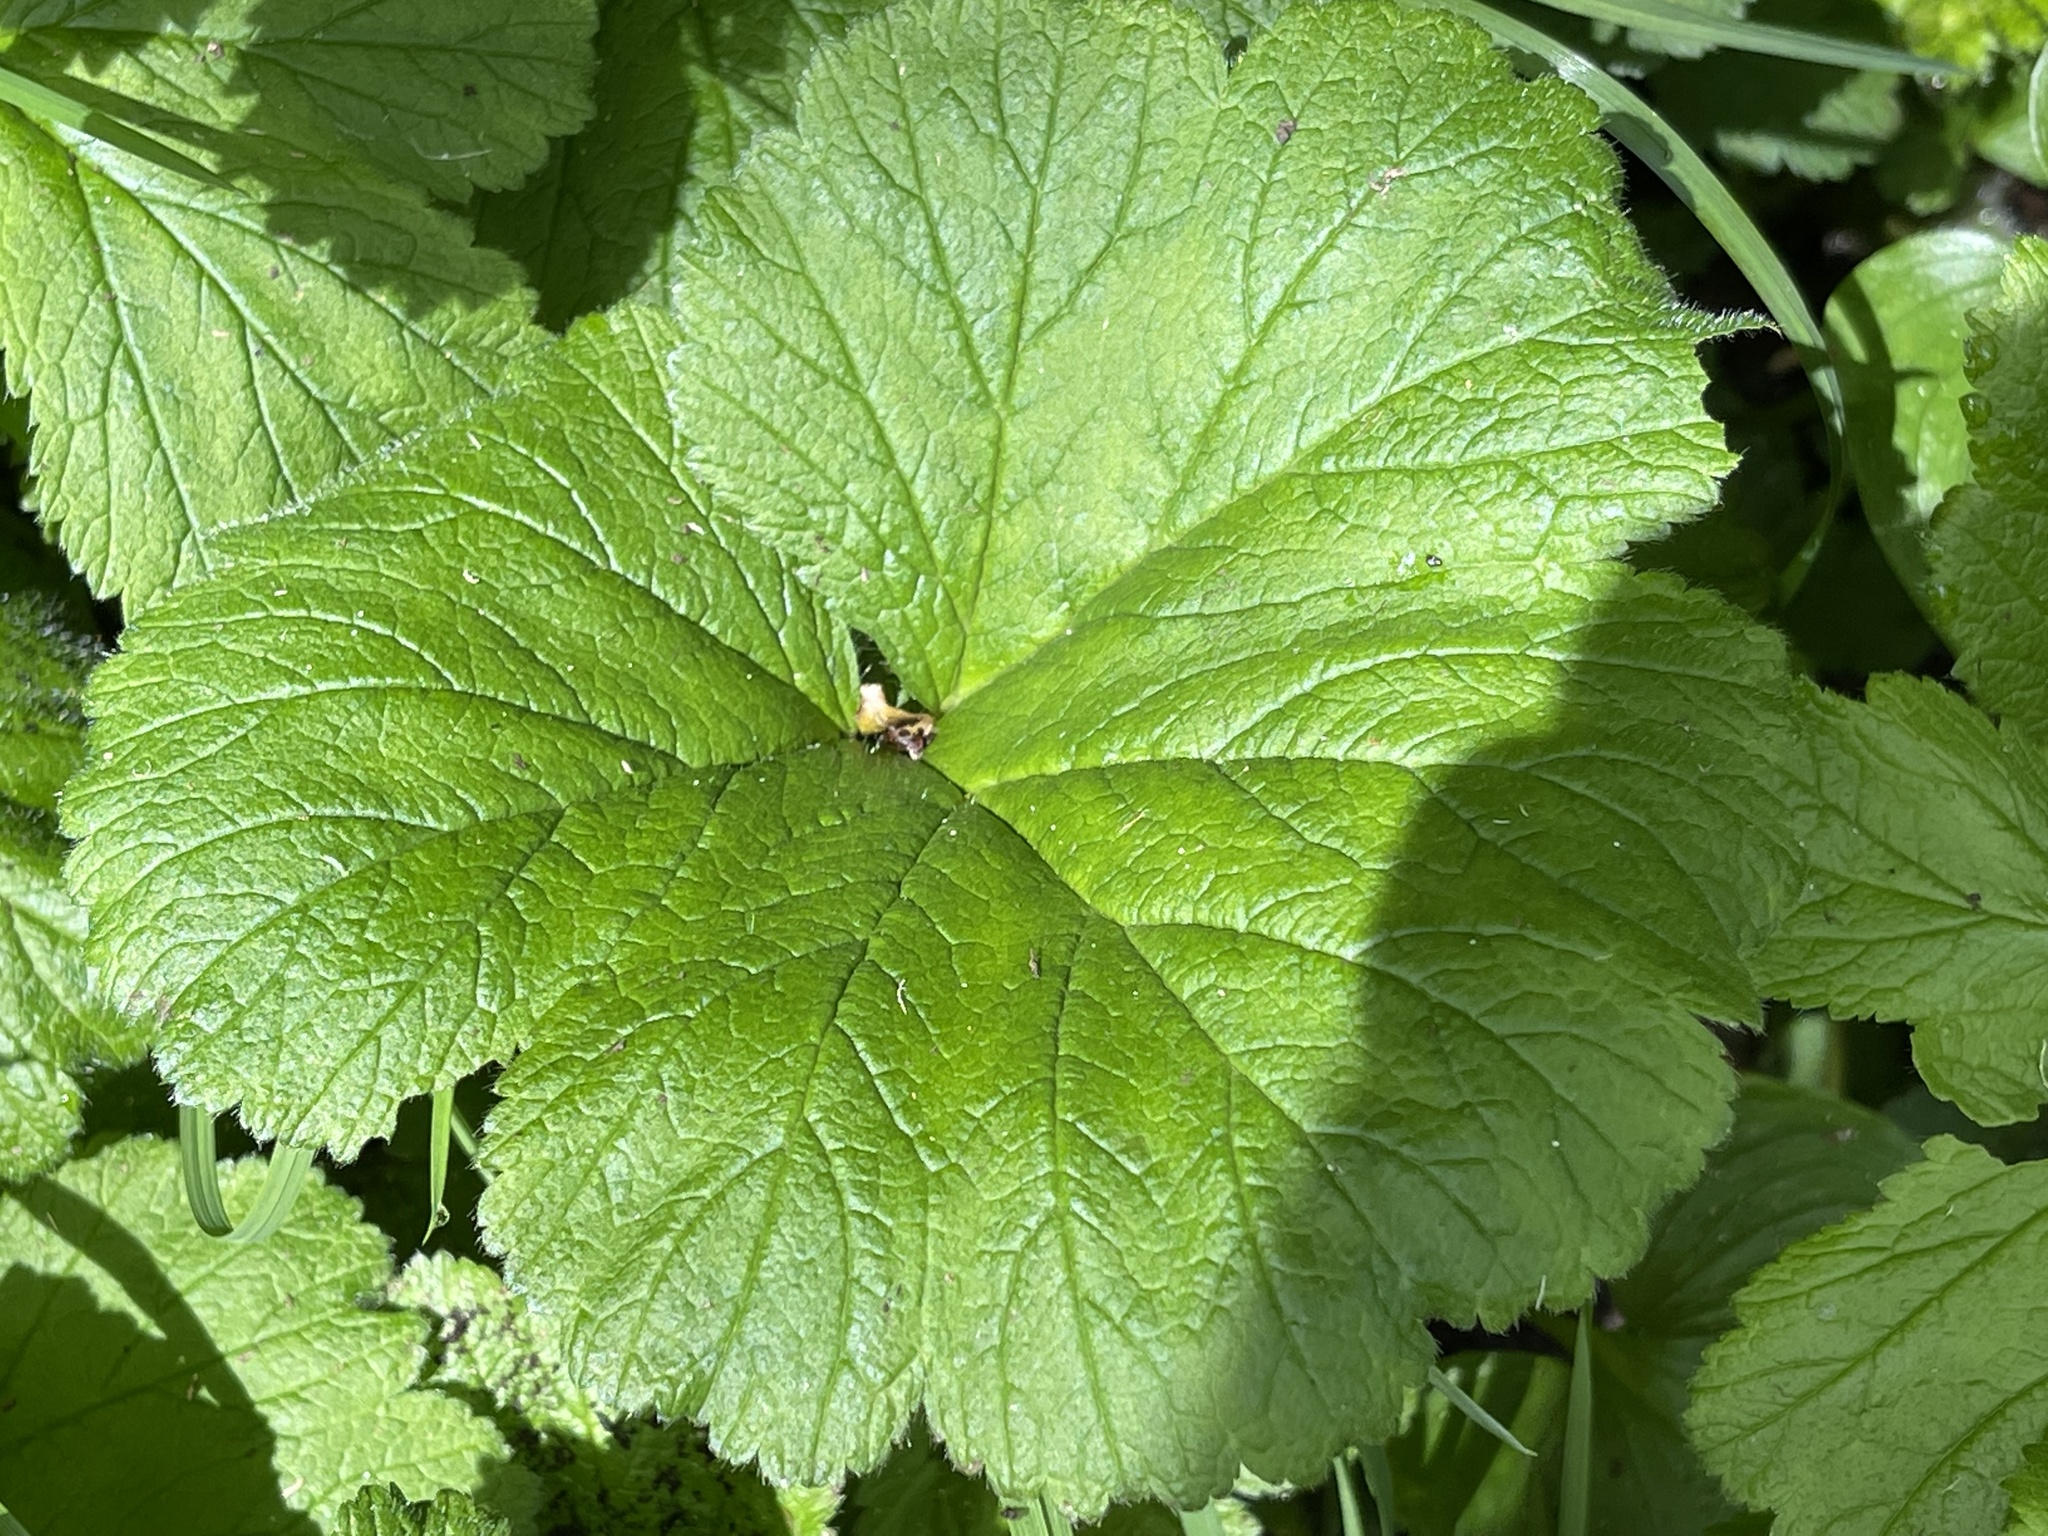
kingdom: Plantae
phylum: Tracheophyta
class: Magnoliopsida
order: Rosales
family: Rosaceae
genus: Geum
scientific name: Geum macrophyllum
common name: Large-leaved avens
